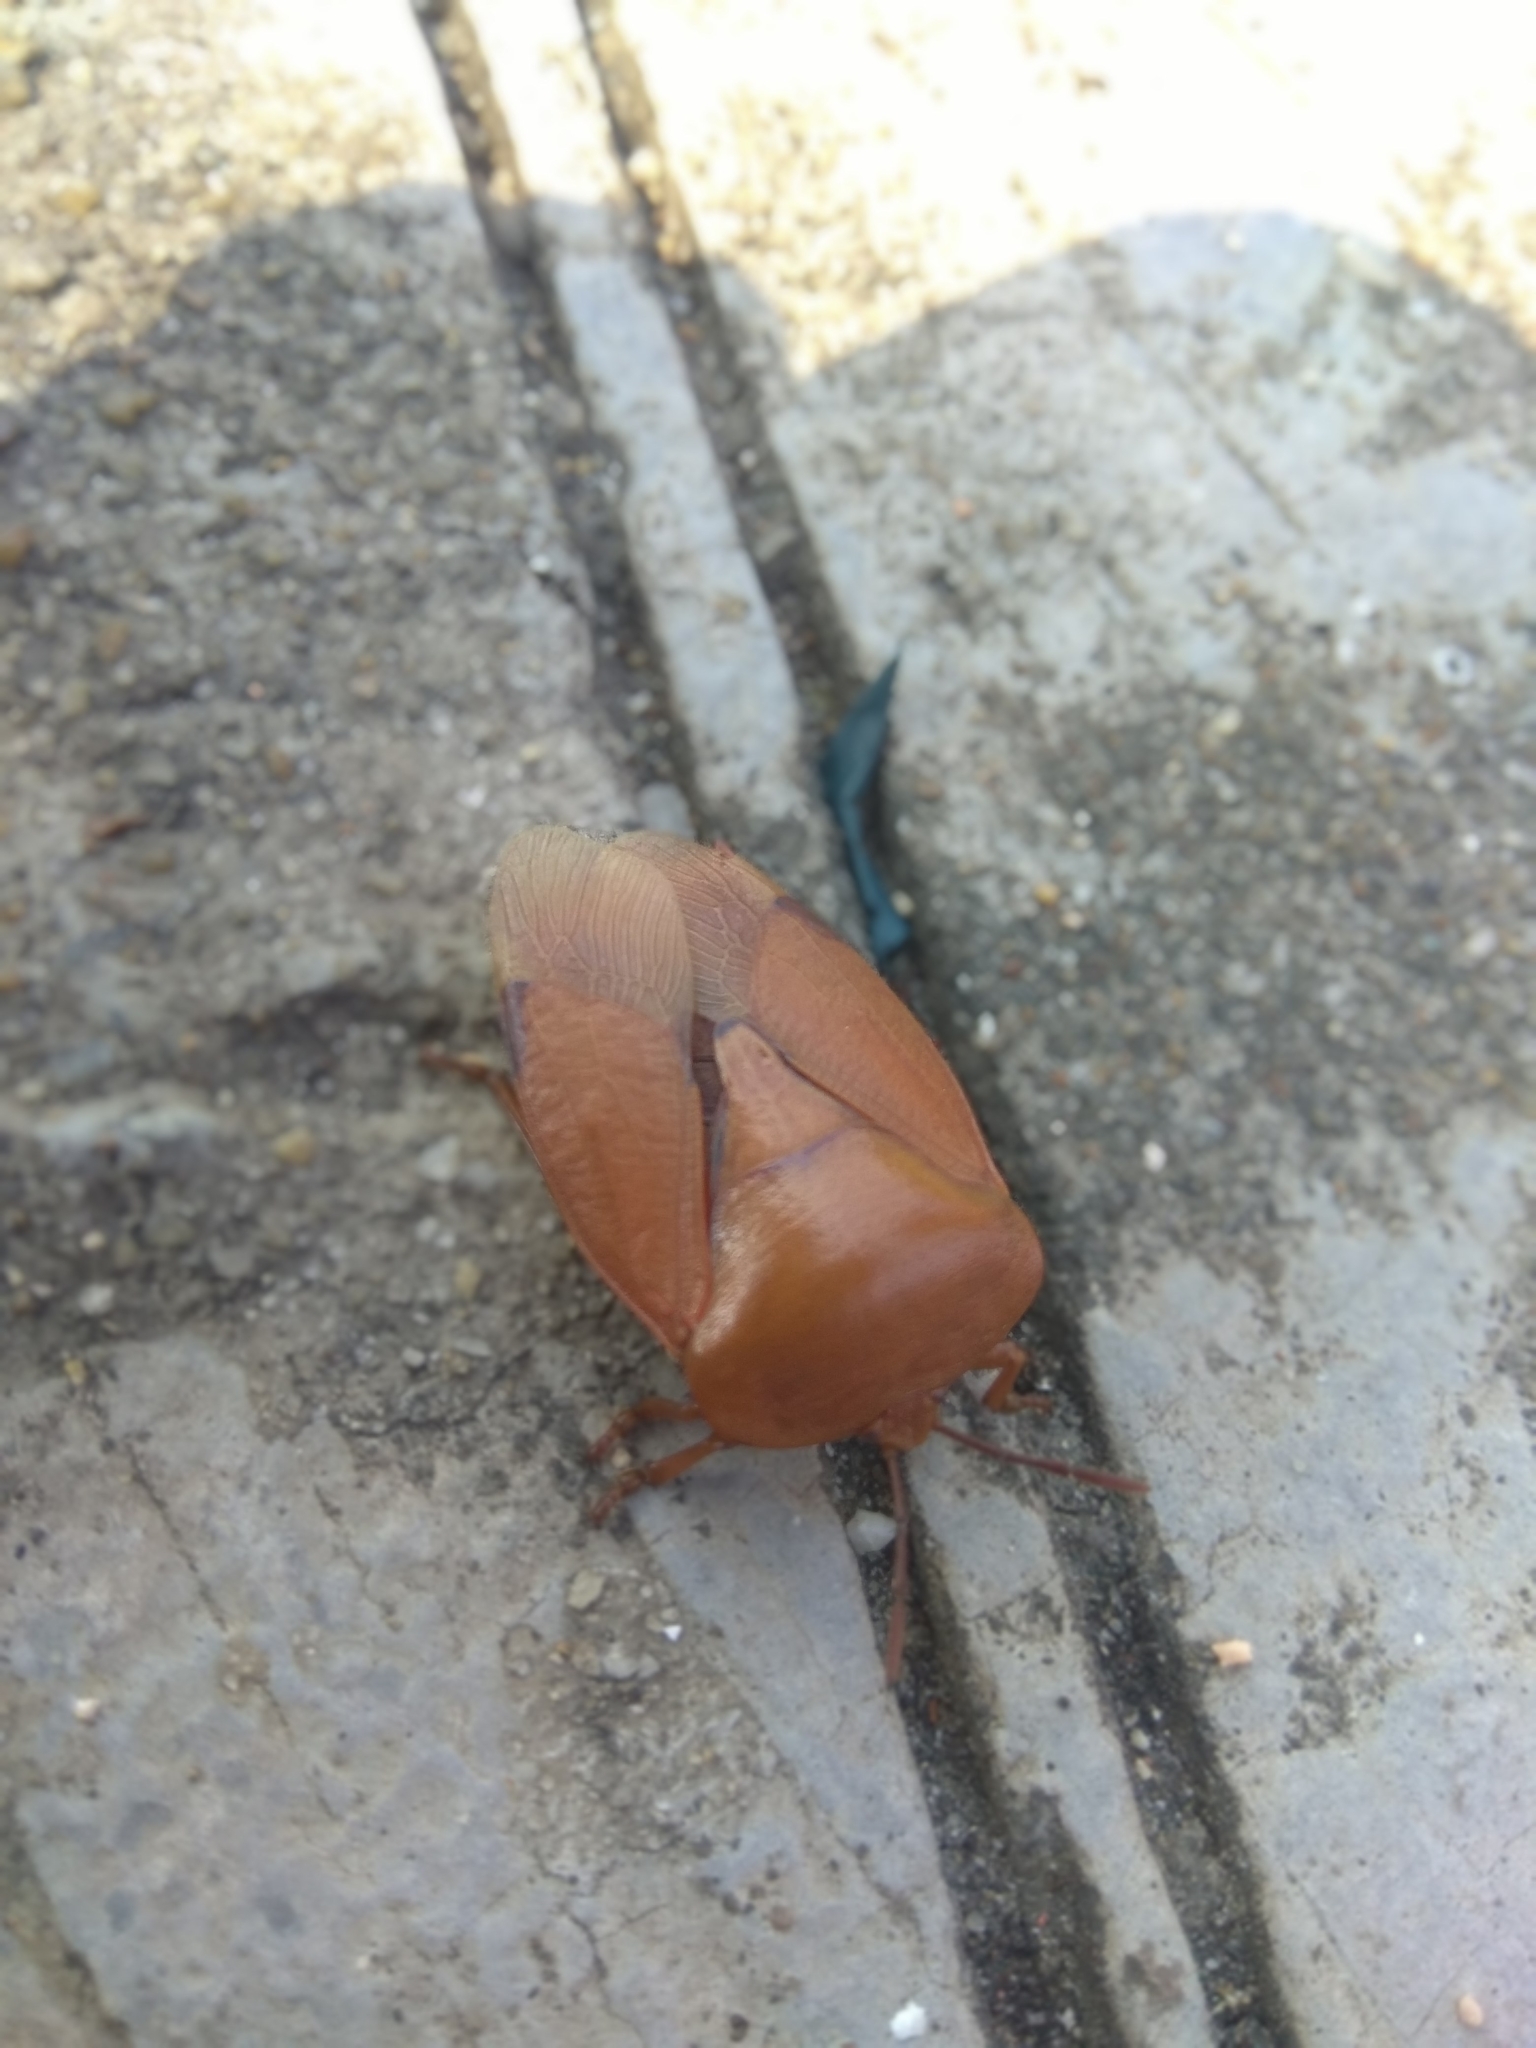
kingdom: Animalia
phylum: Arthropoda
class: Insecta
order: Hemiptera
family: Tessaratomidae
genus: Tessaratoma
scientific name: Tessaratoma papillosa
